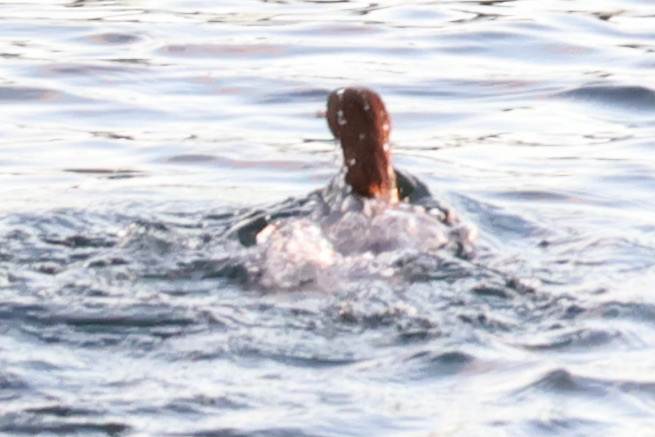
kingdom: Animalia
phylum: Chordata
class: Aves
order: Anseriformes
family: Anatidae
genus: Mergus
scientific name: Mergus merganser
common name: Common merganser
